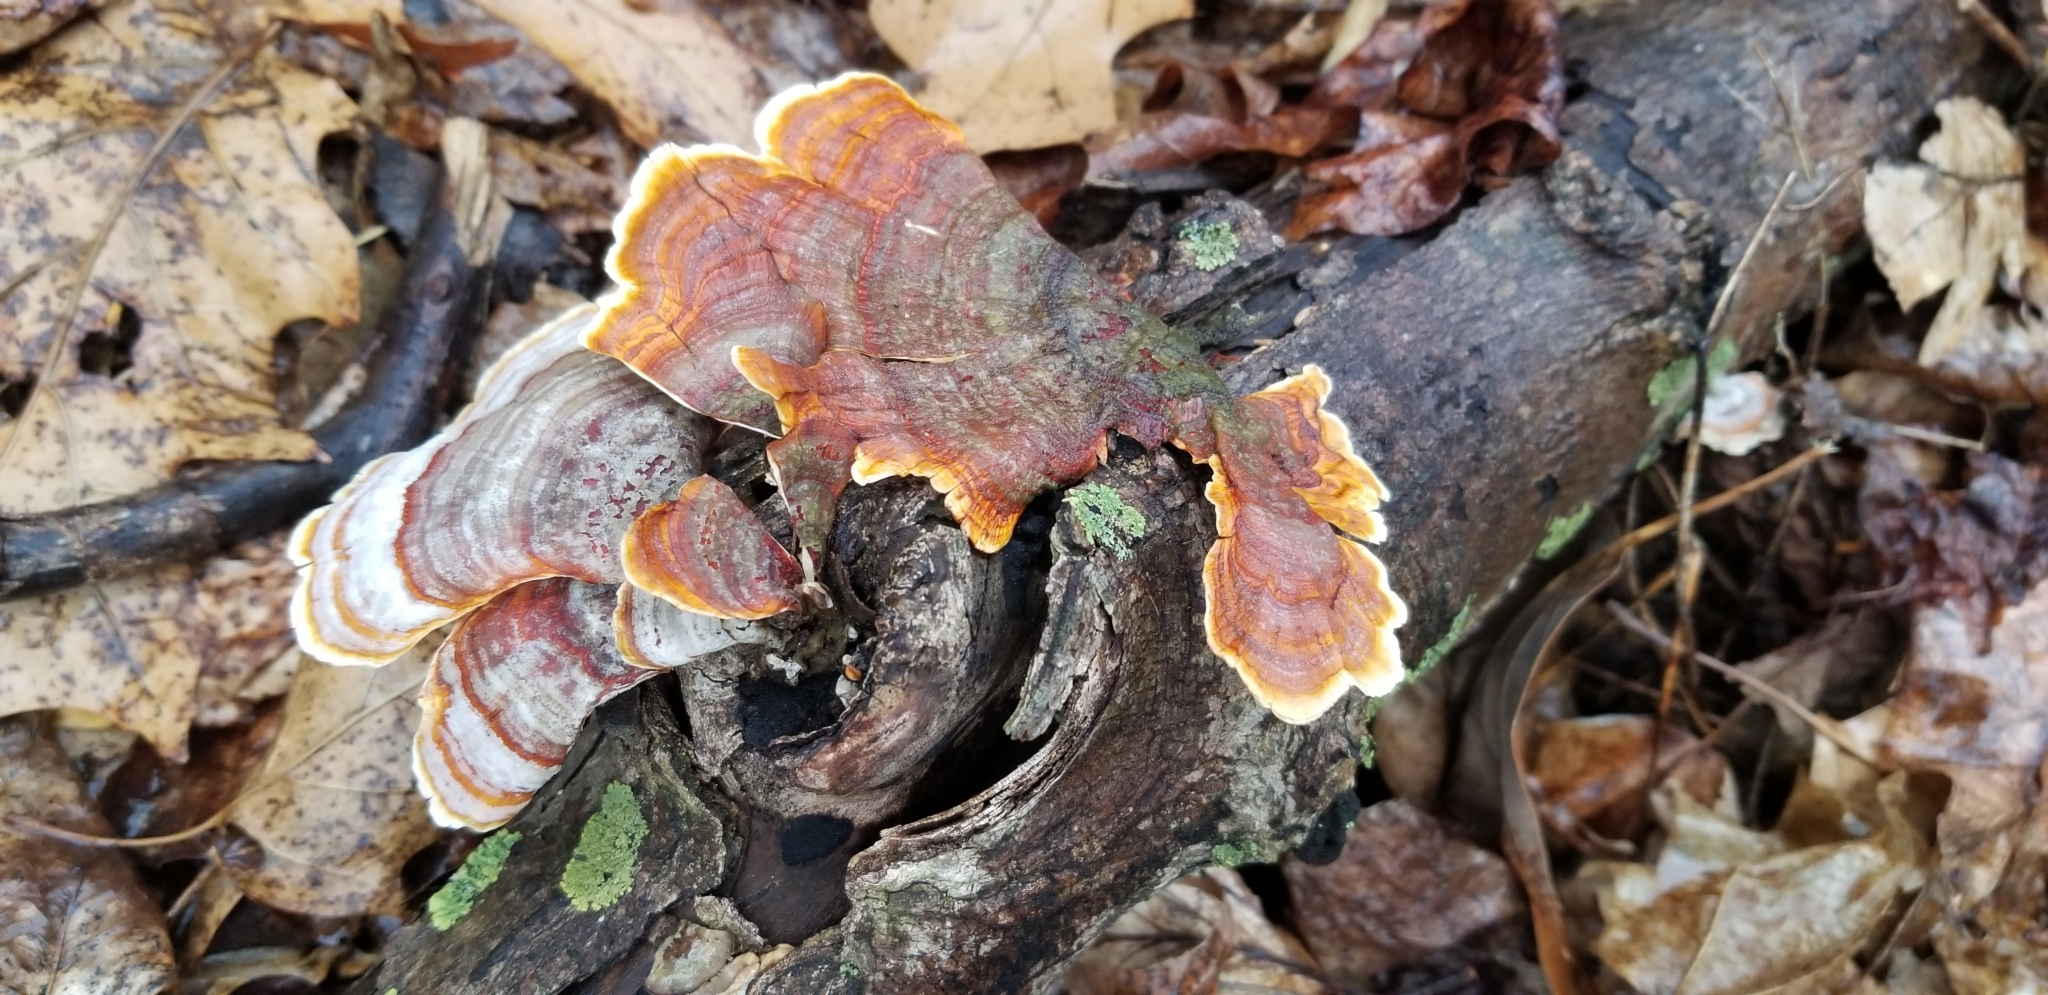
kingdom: Fungi
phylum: Basidiomycota
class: Agaricomycetes
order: Russulales
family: Stereaceae
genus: Stereum
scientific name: Stereum lobatum
